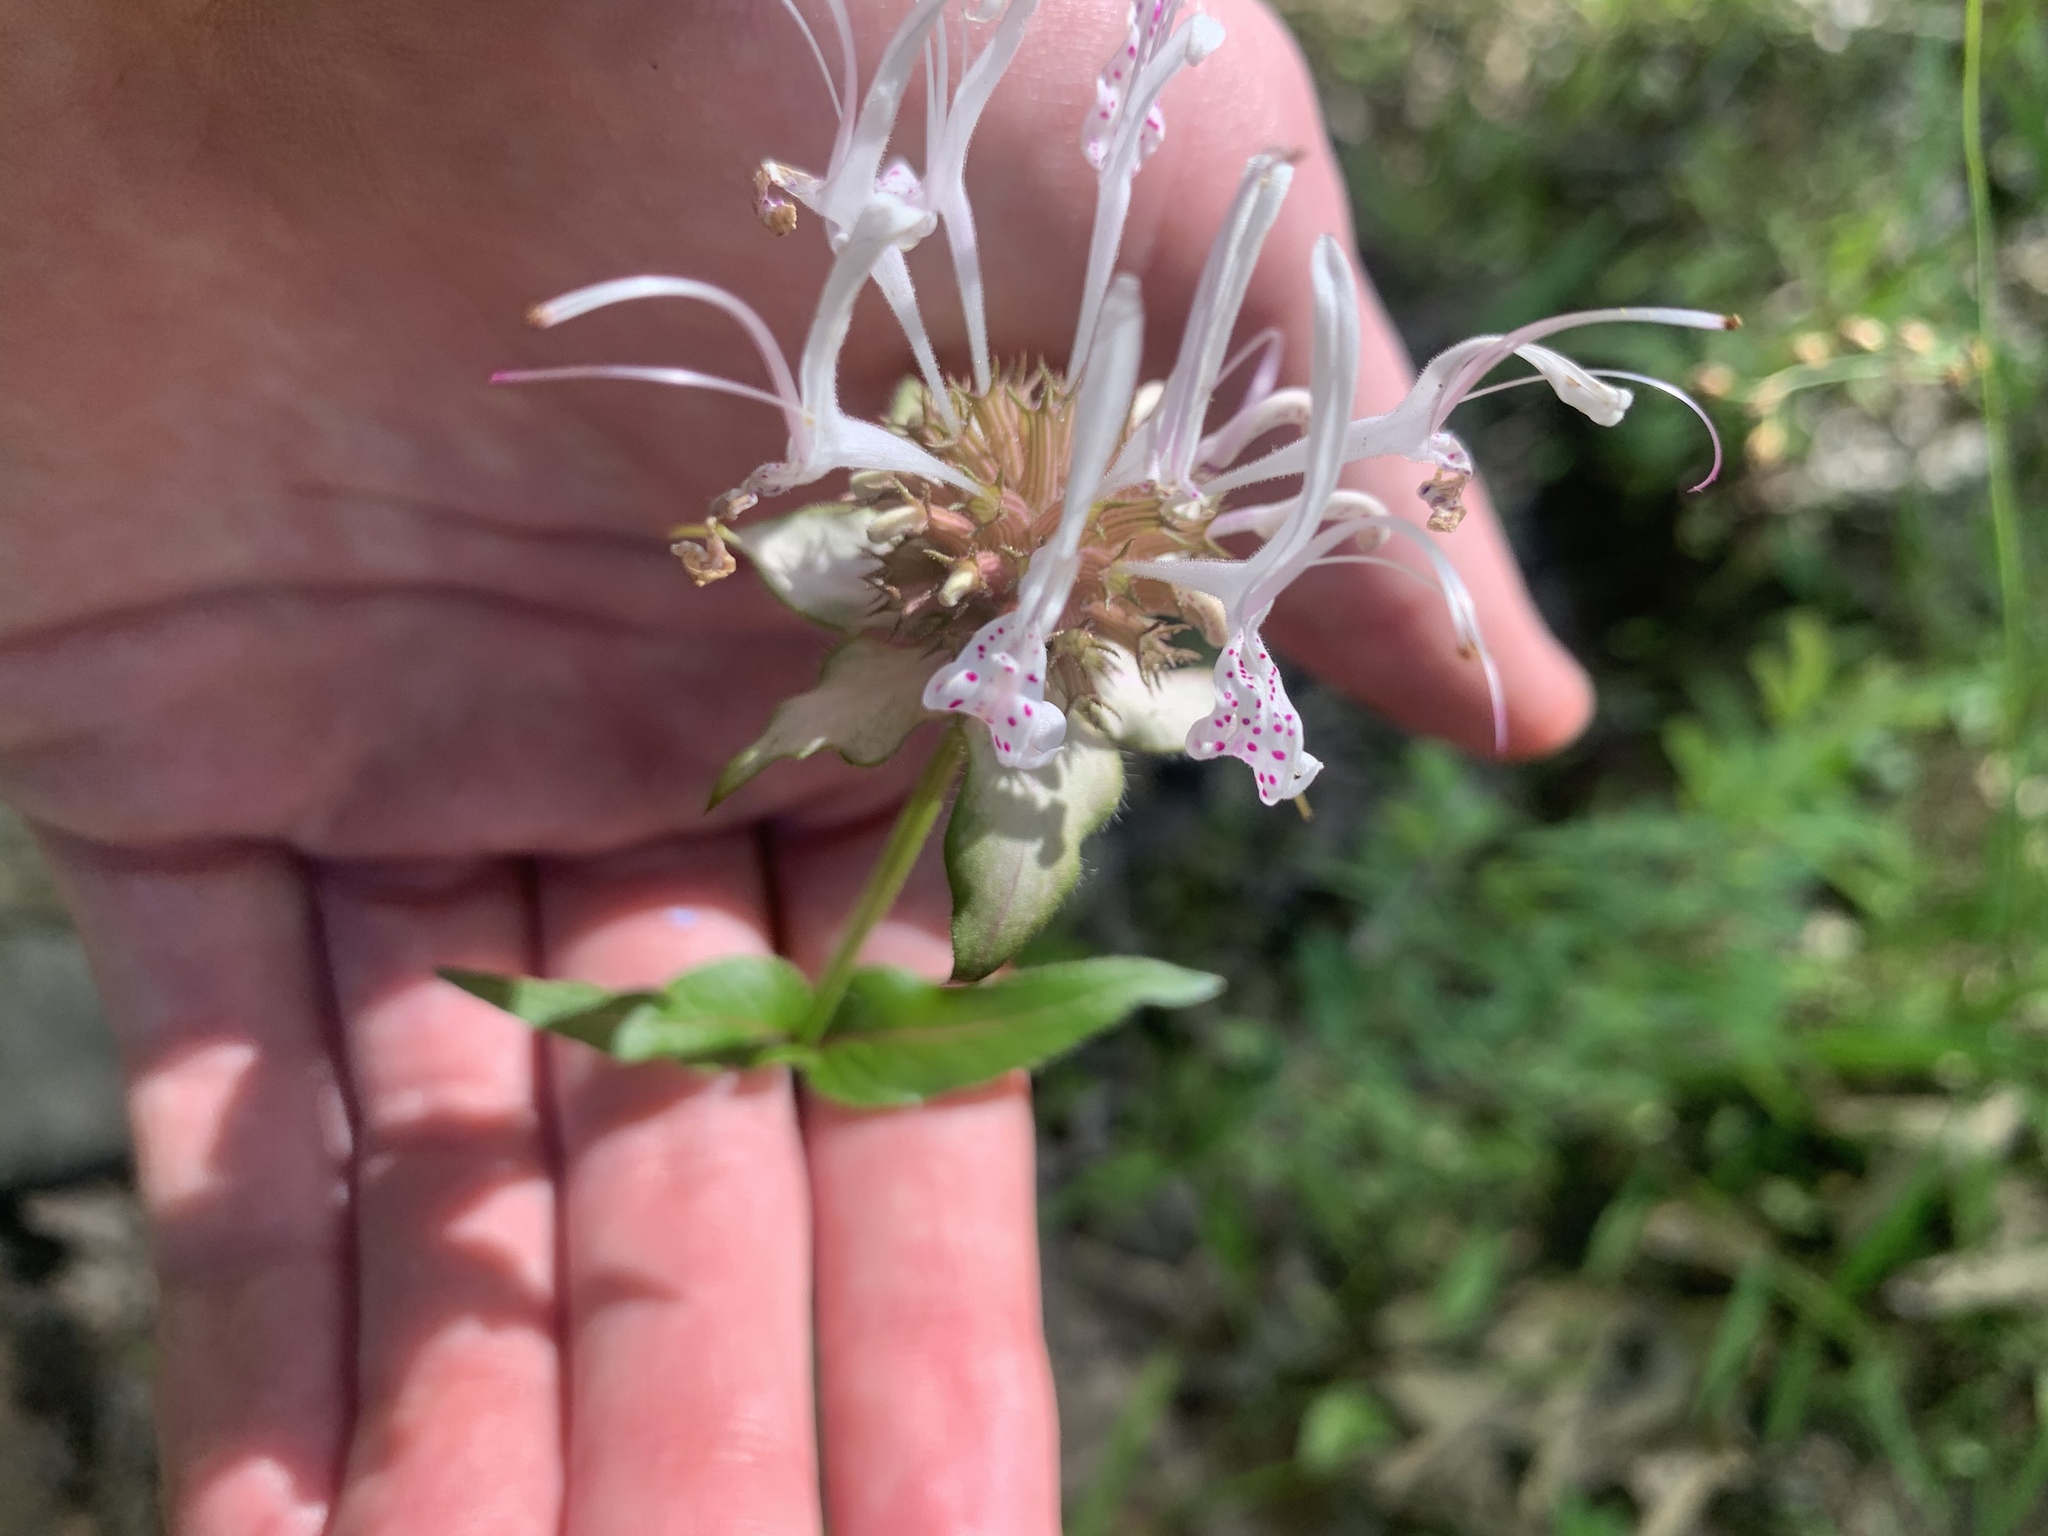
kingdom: Plantae
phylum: Tracheophyta
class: Magnoliopsida
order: Lamiales
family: Lamiaceae
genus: Monarda
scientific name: Monarda russeliana
